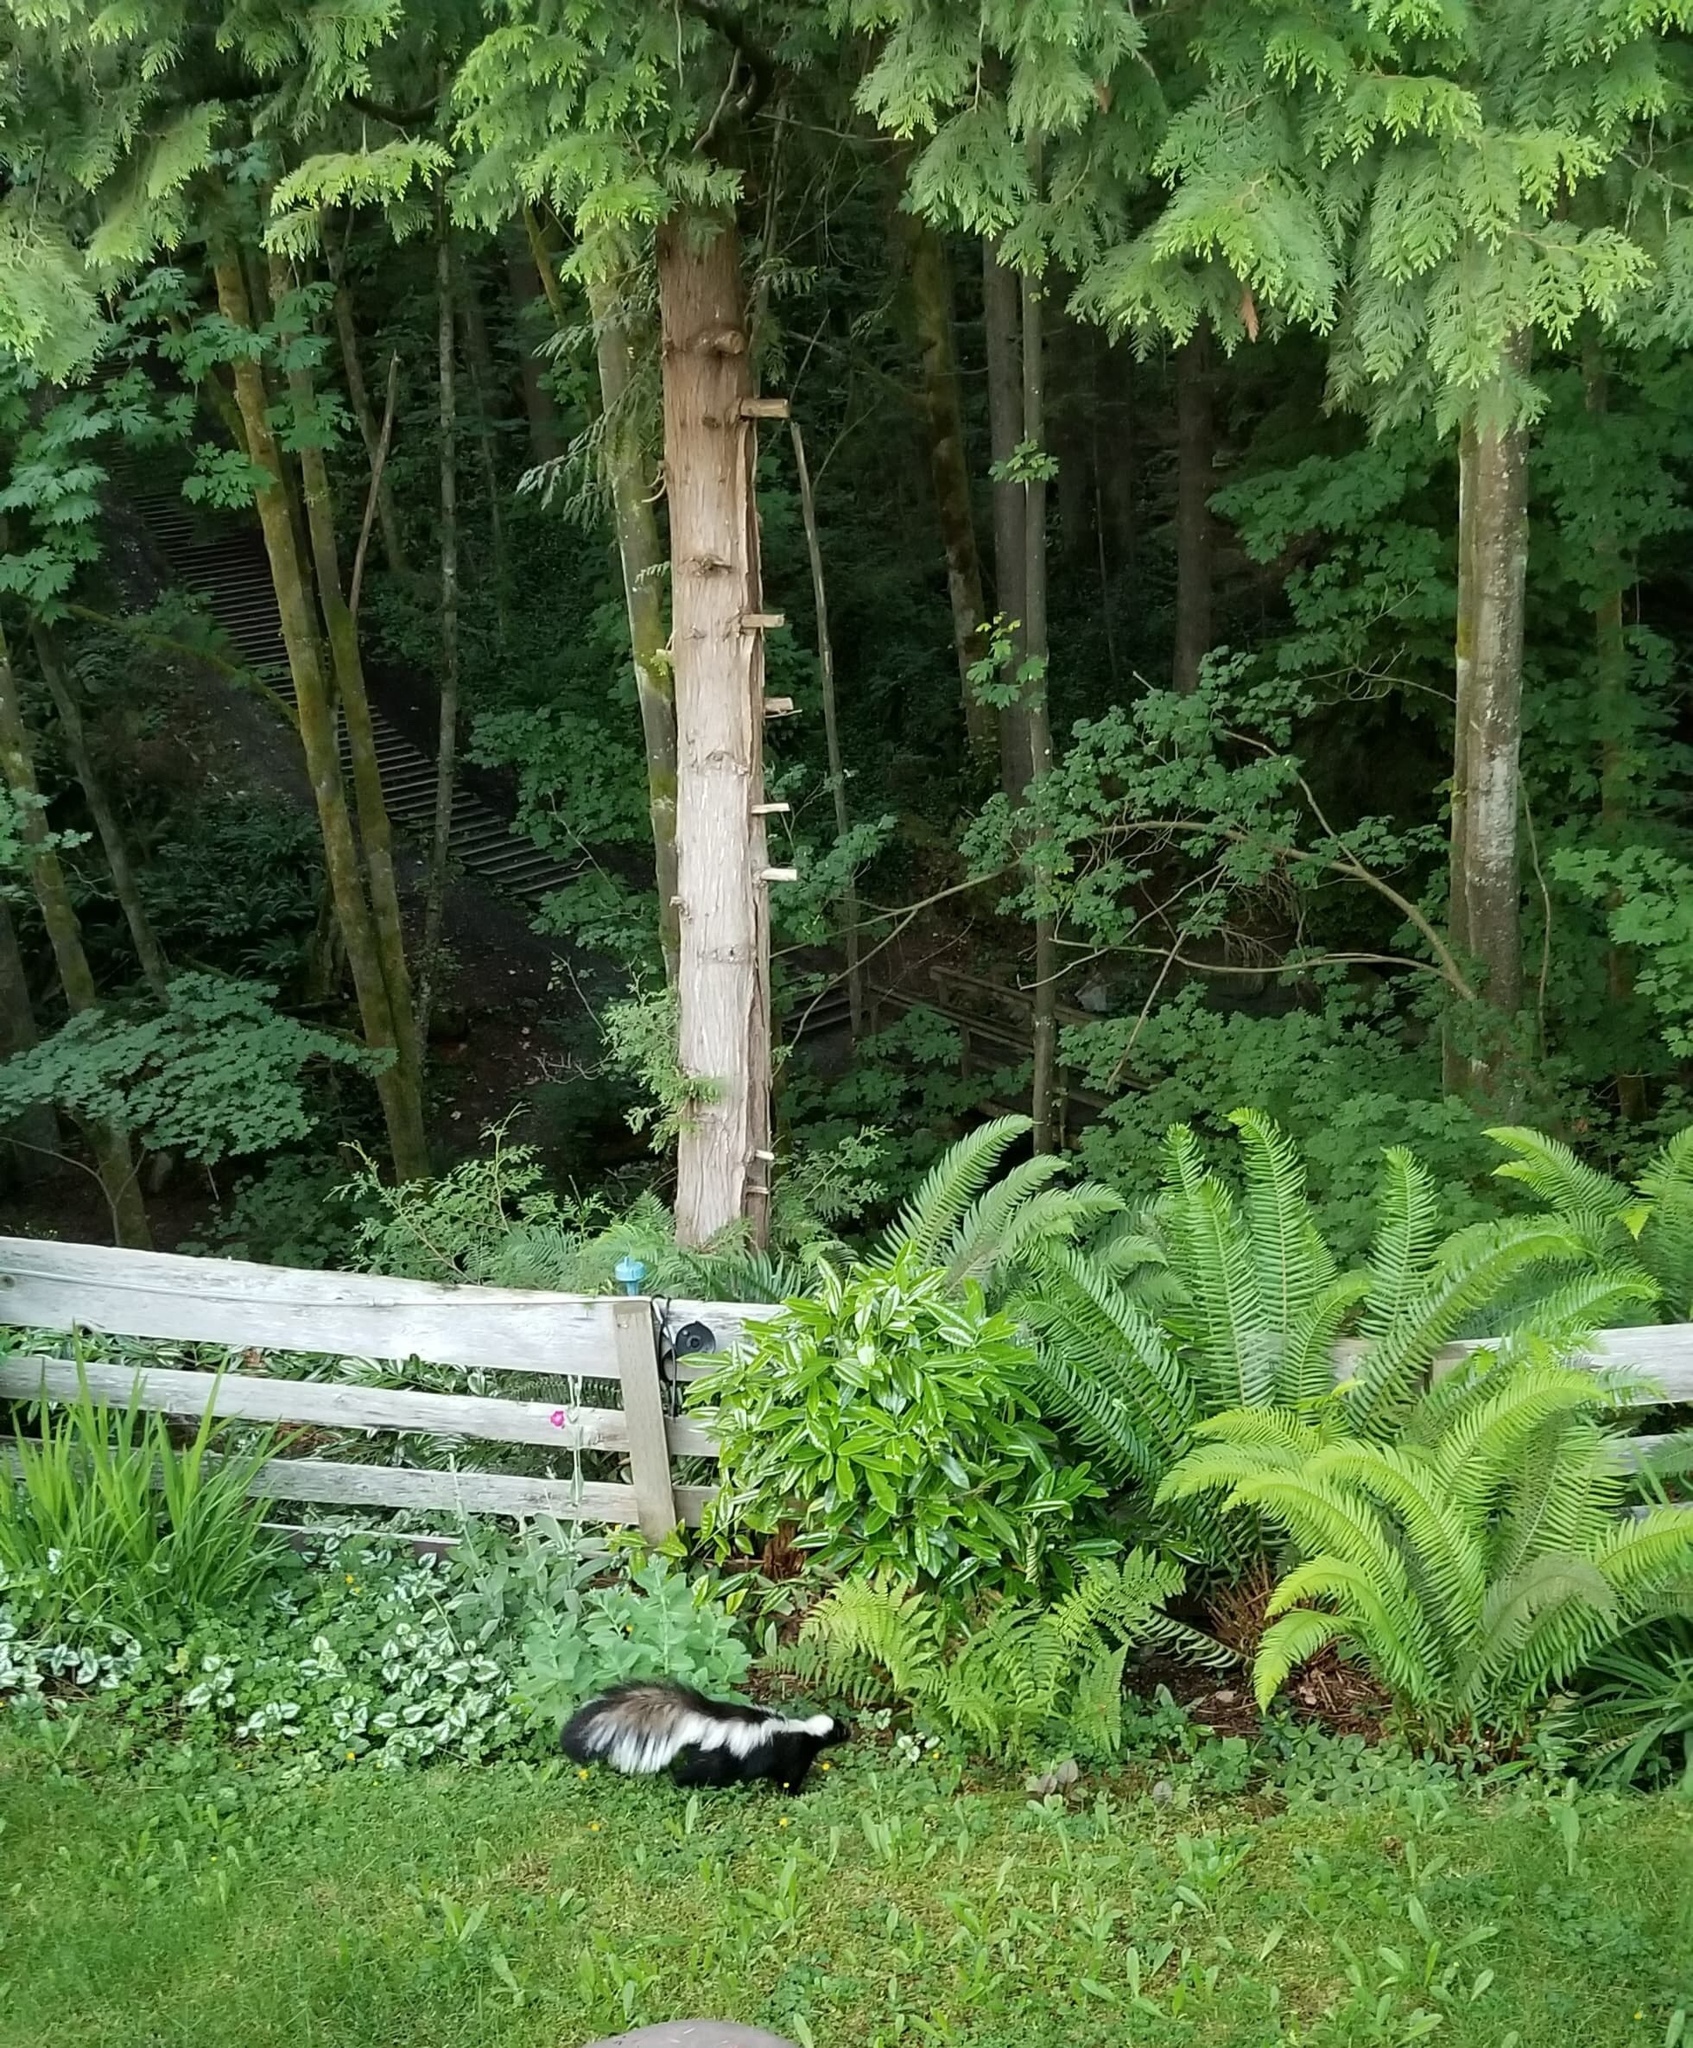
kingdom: Animalia
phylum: Chordata
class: Mammalia
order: Carnivora
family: Mephitidae
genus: Mephitis
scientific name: Mephitis mephitis
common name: Striped skunk
